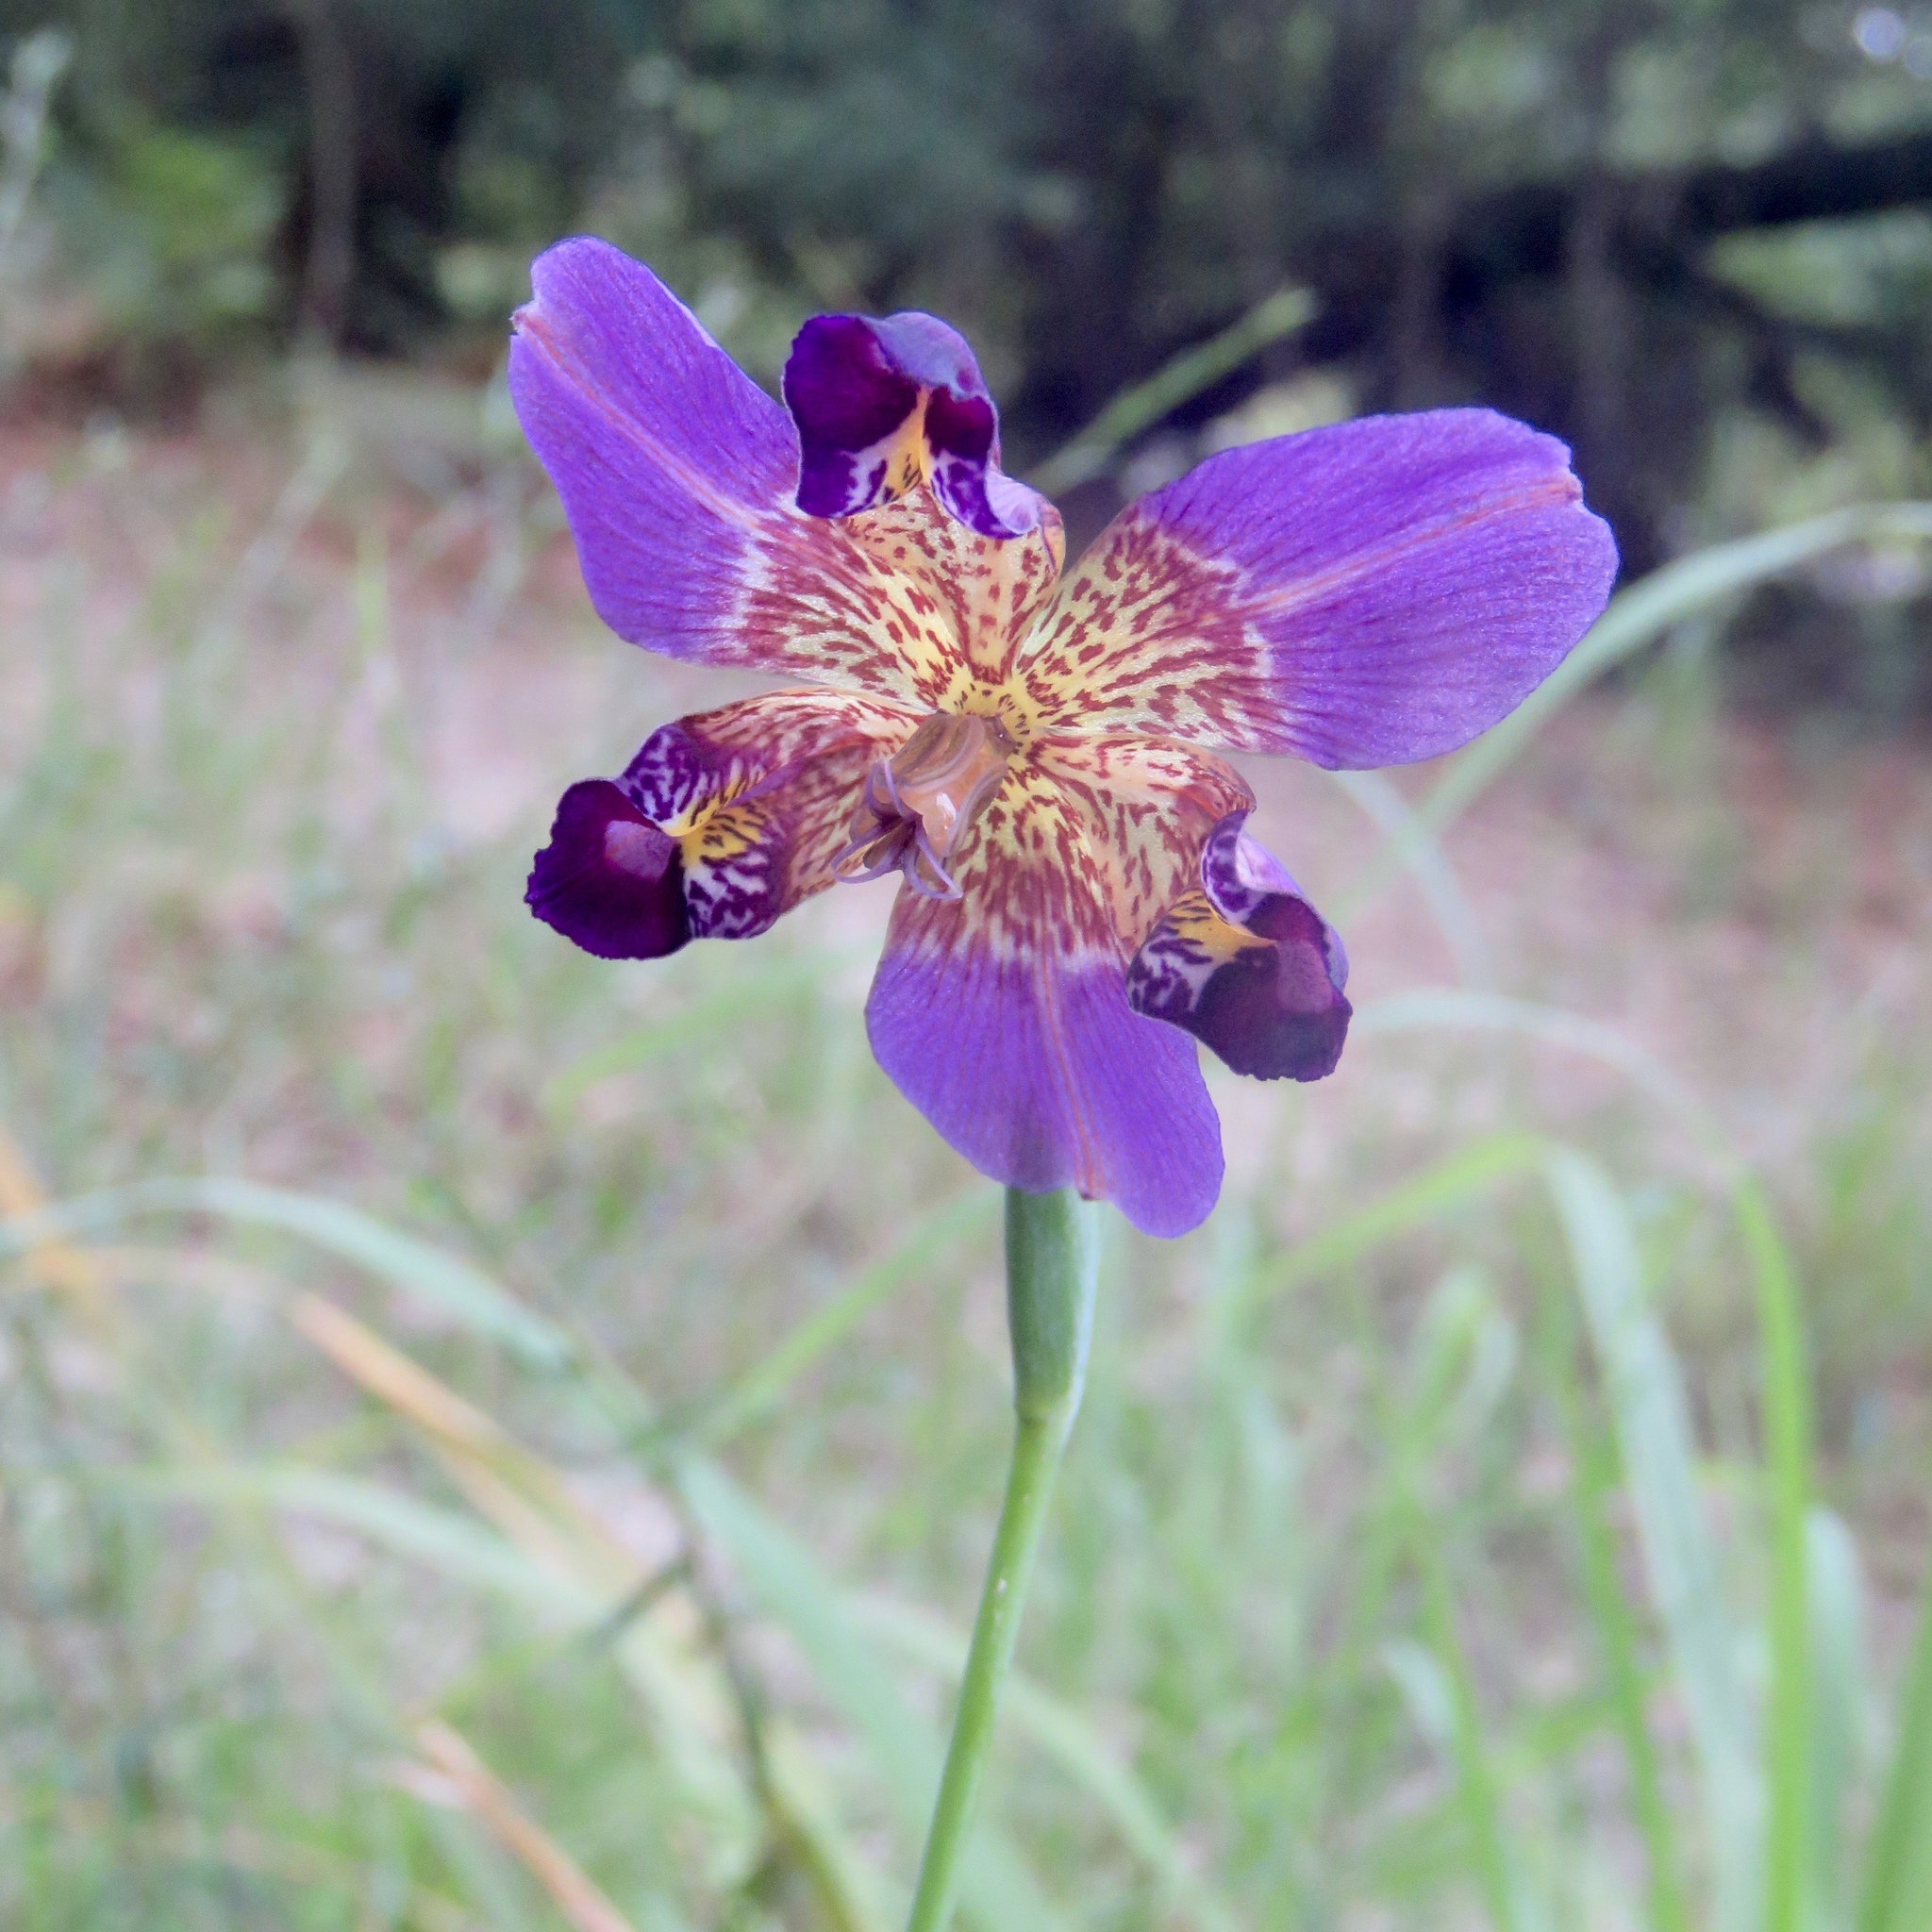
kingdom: Plantae
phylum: Tracheophyta
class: Liliopsida
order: Asparagales
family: Iridaceae
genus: Alophia
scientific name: Alophia drummondii
